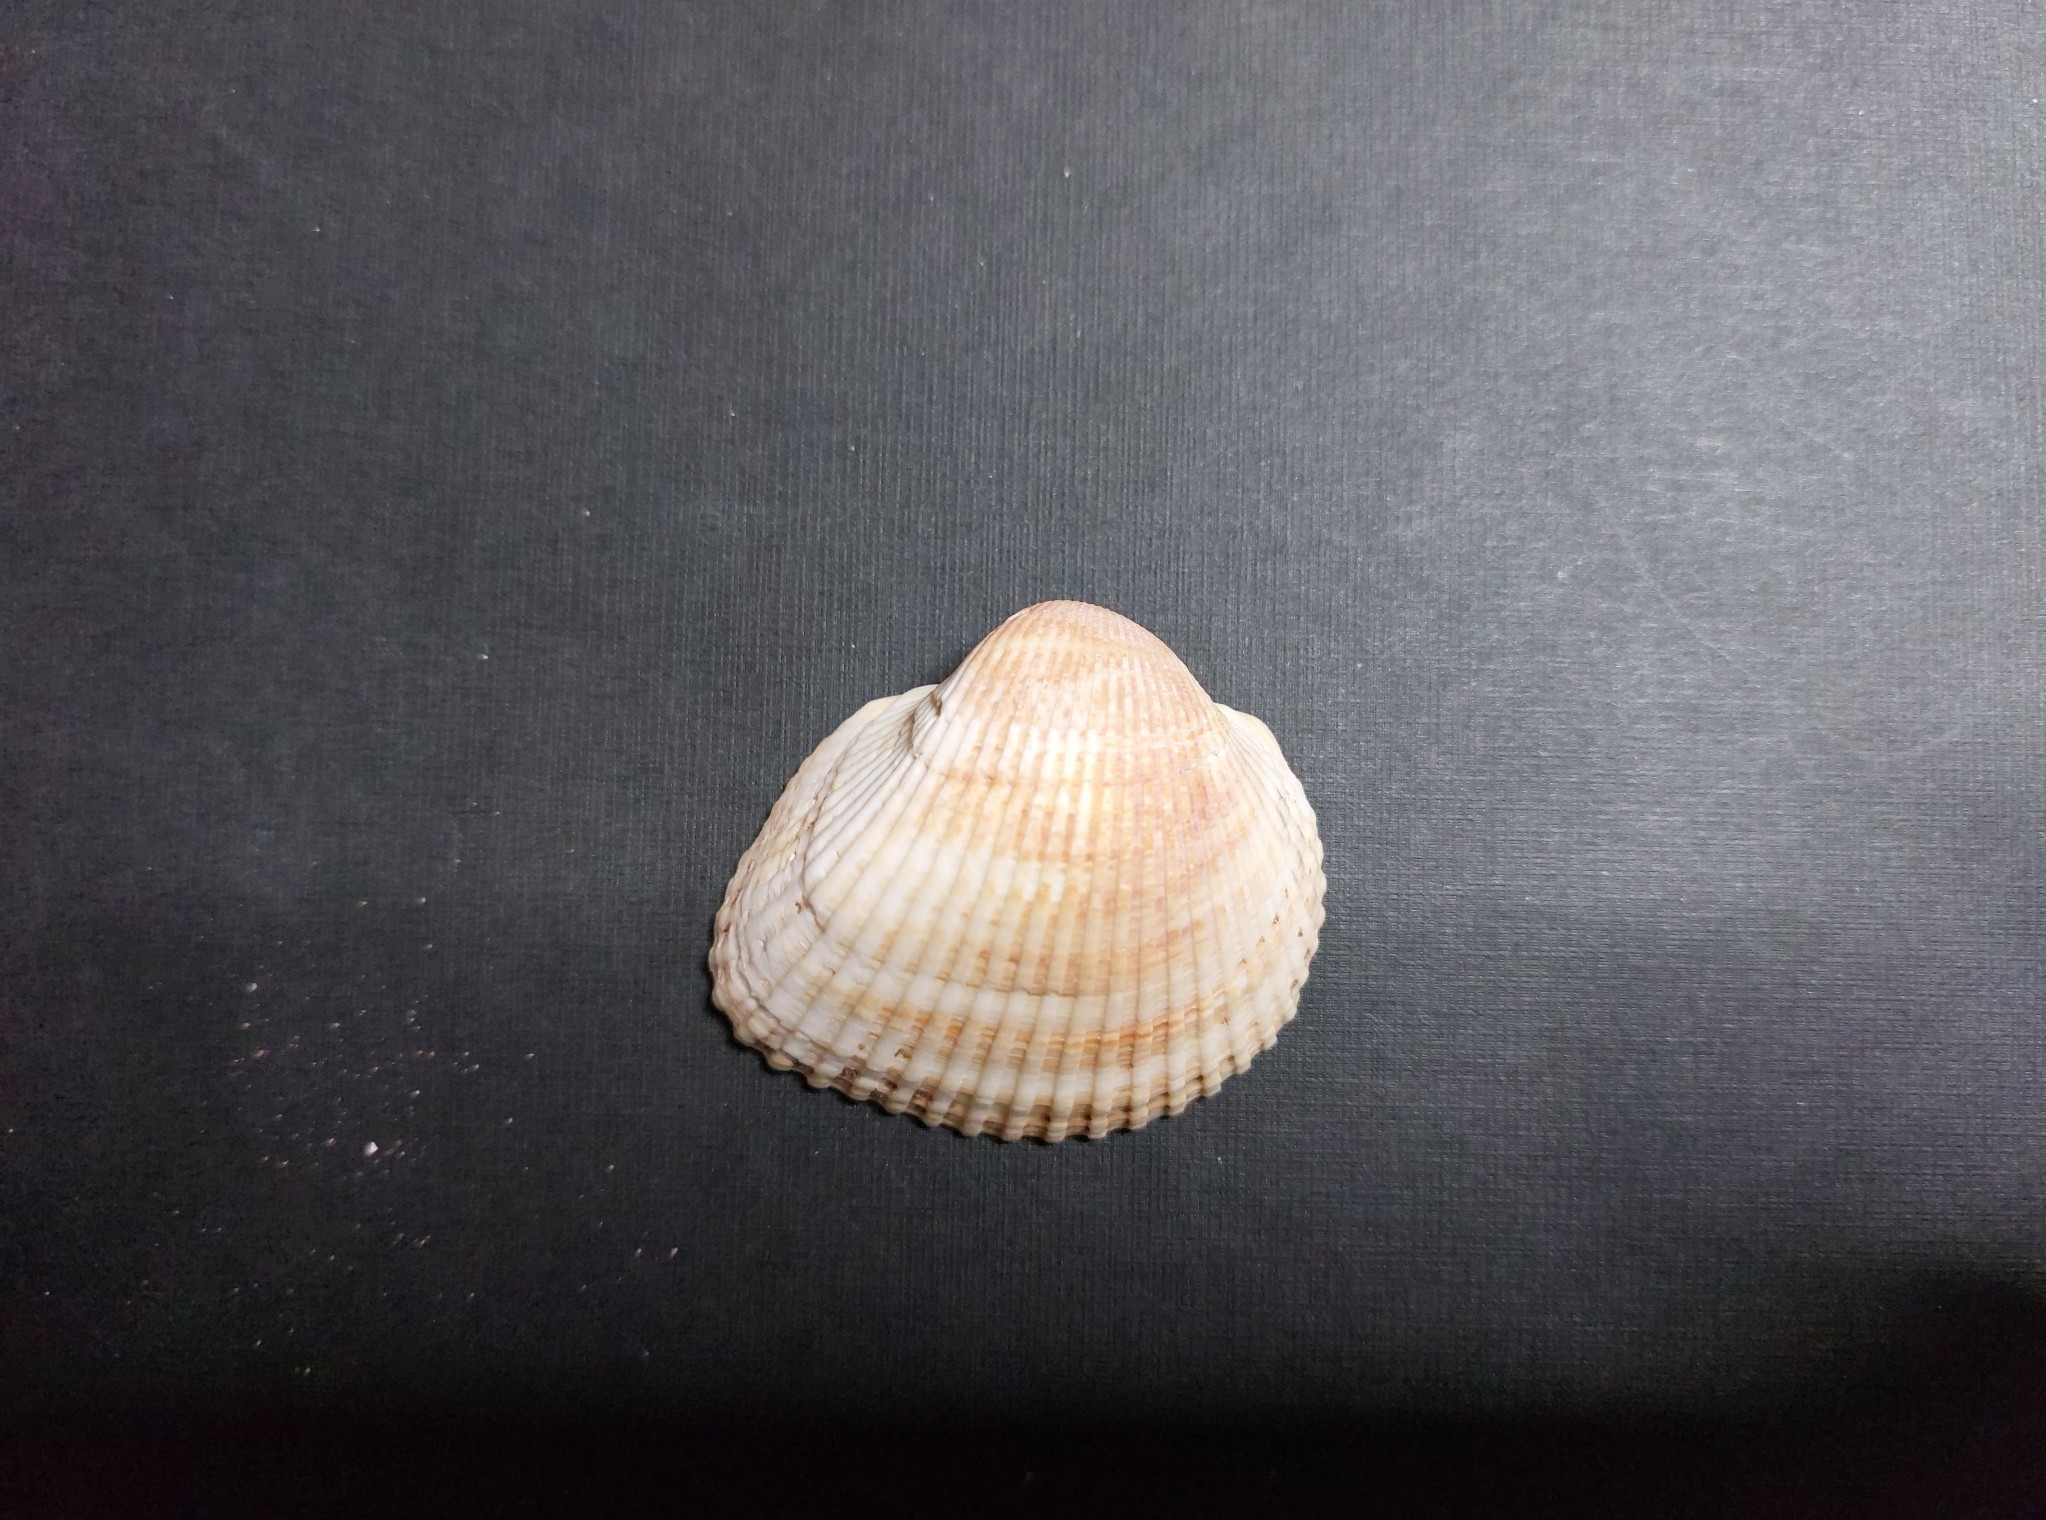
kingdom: Animalia
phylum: Mollusca
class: Bivalvia
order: Arcida
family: Arcidae
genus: Anadara
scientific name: Anadara kagoshimensis
